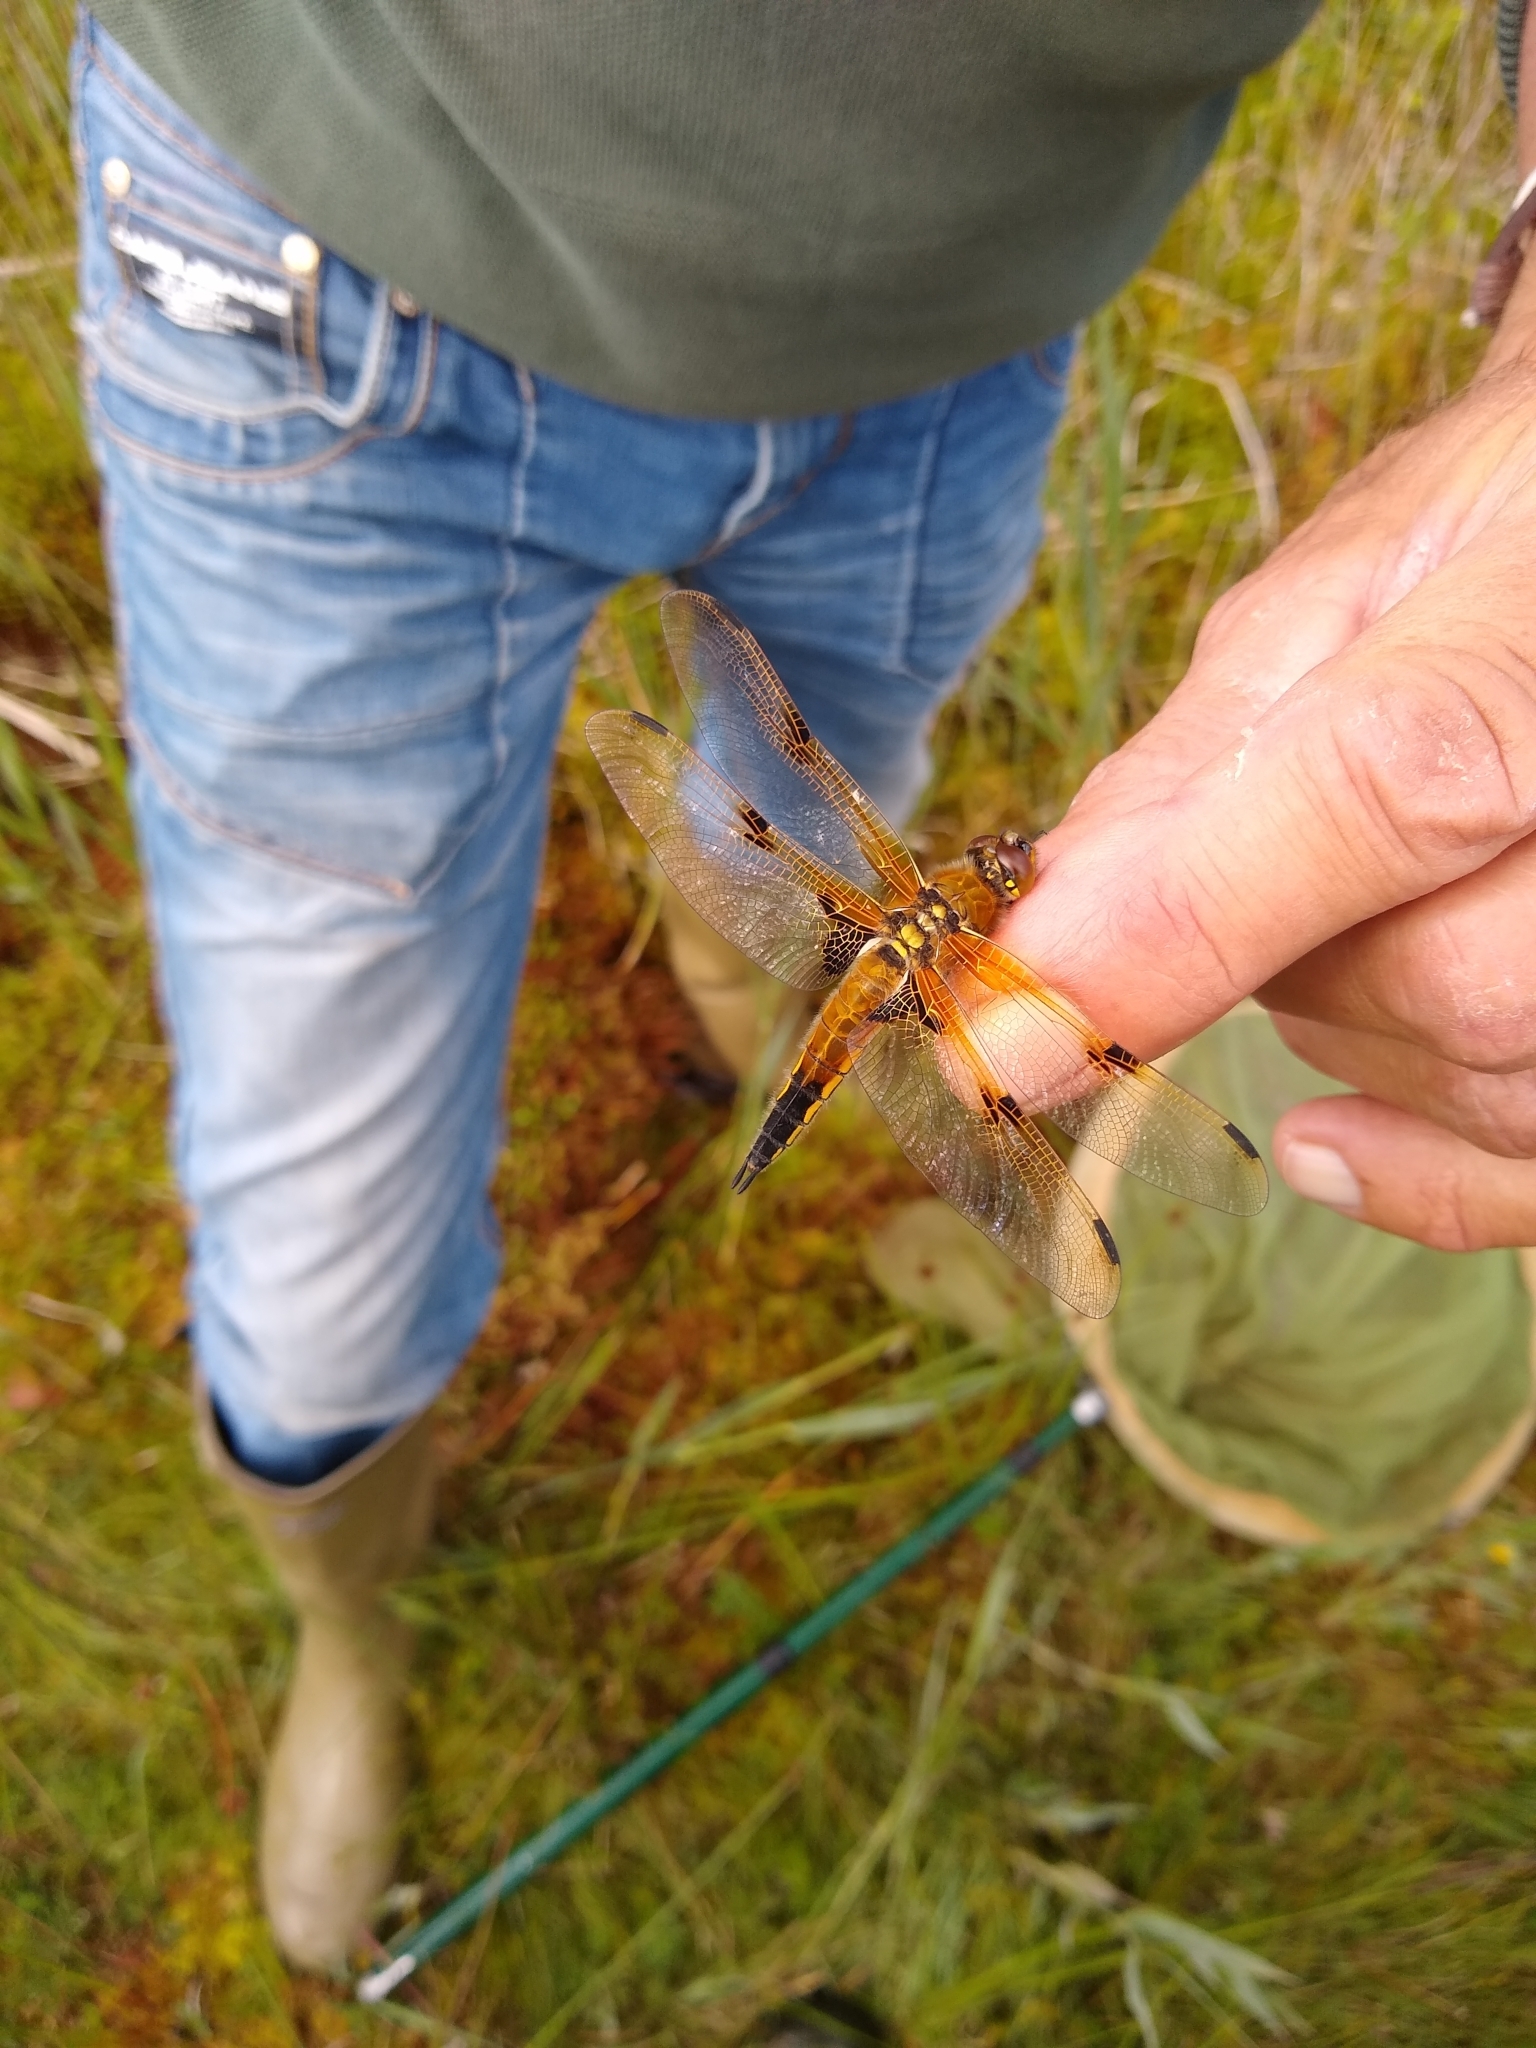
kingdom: Animalia
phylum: Arthropoda
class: Insecta
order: Odonata
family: Libellulidae
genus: Libellula
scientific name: Libellula quadrimaculata
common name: Four-spotted chaser
